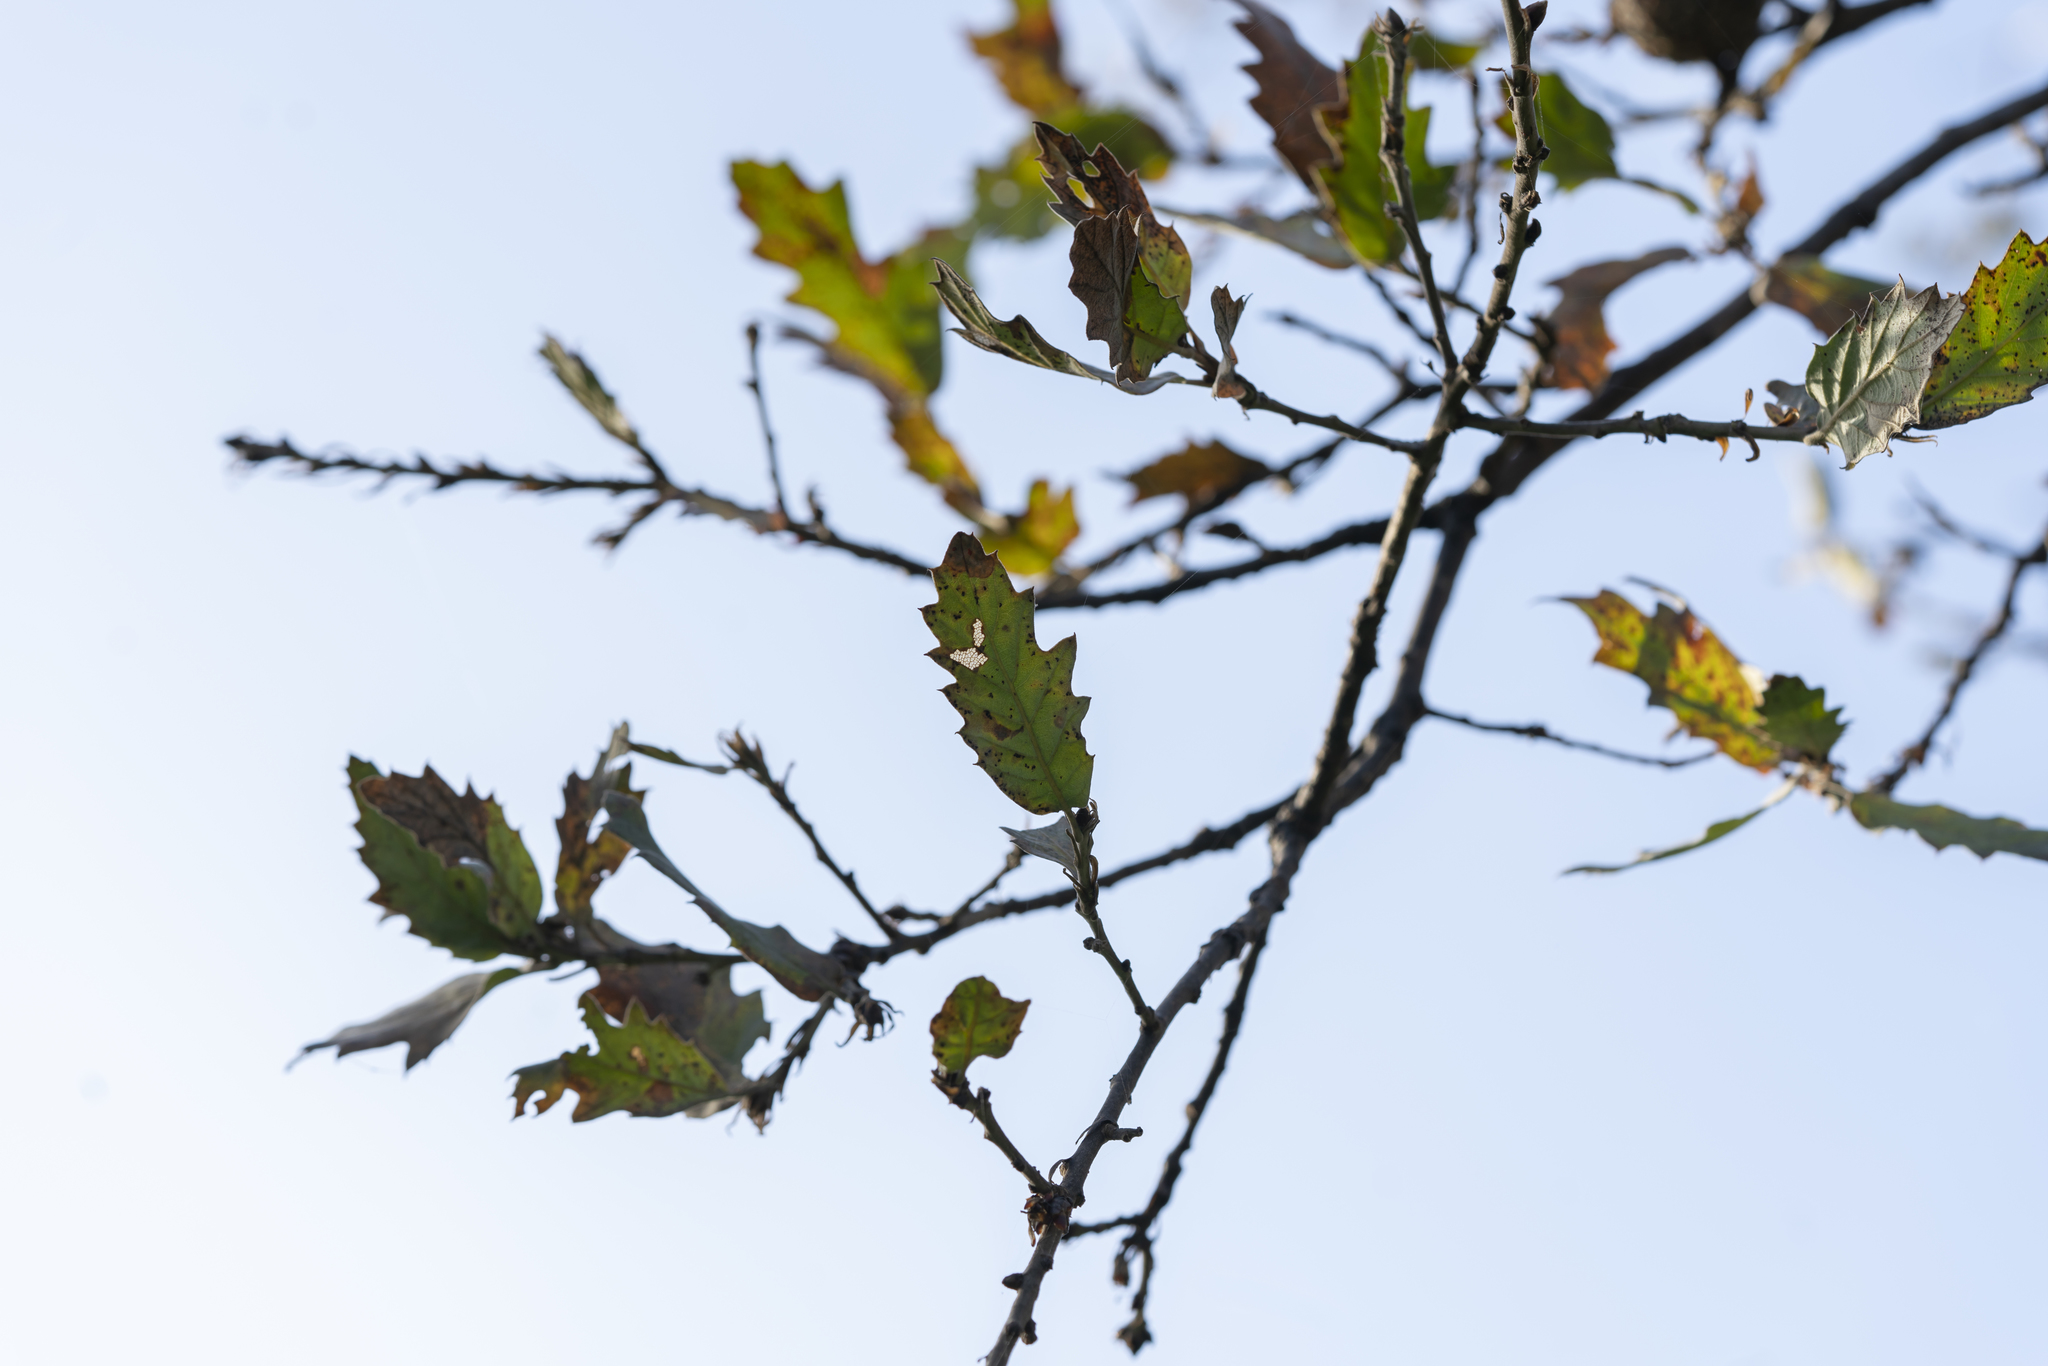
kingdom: Plantae
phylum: Tracheophyta
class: Magnoliopsida
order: Fagales
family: Fagaceae
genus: Quercus
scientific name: Quercus ithaburensis
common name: Tabor oak
